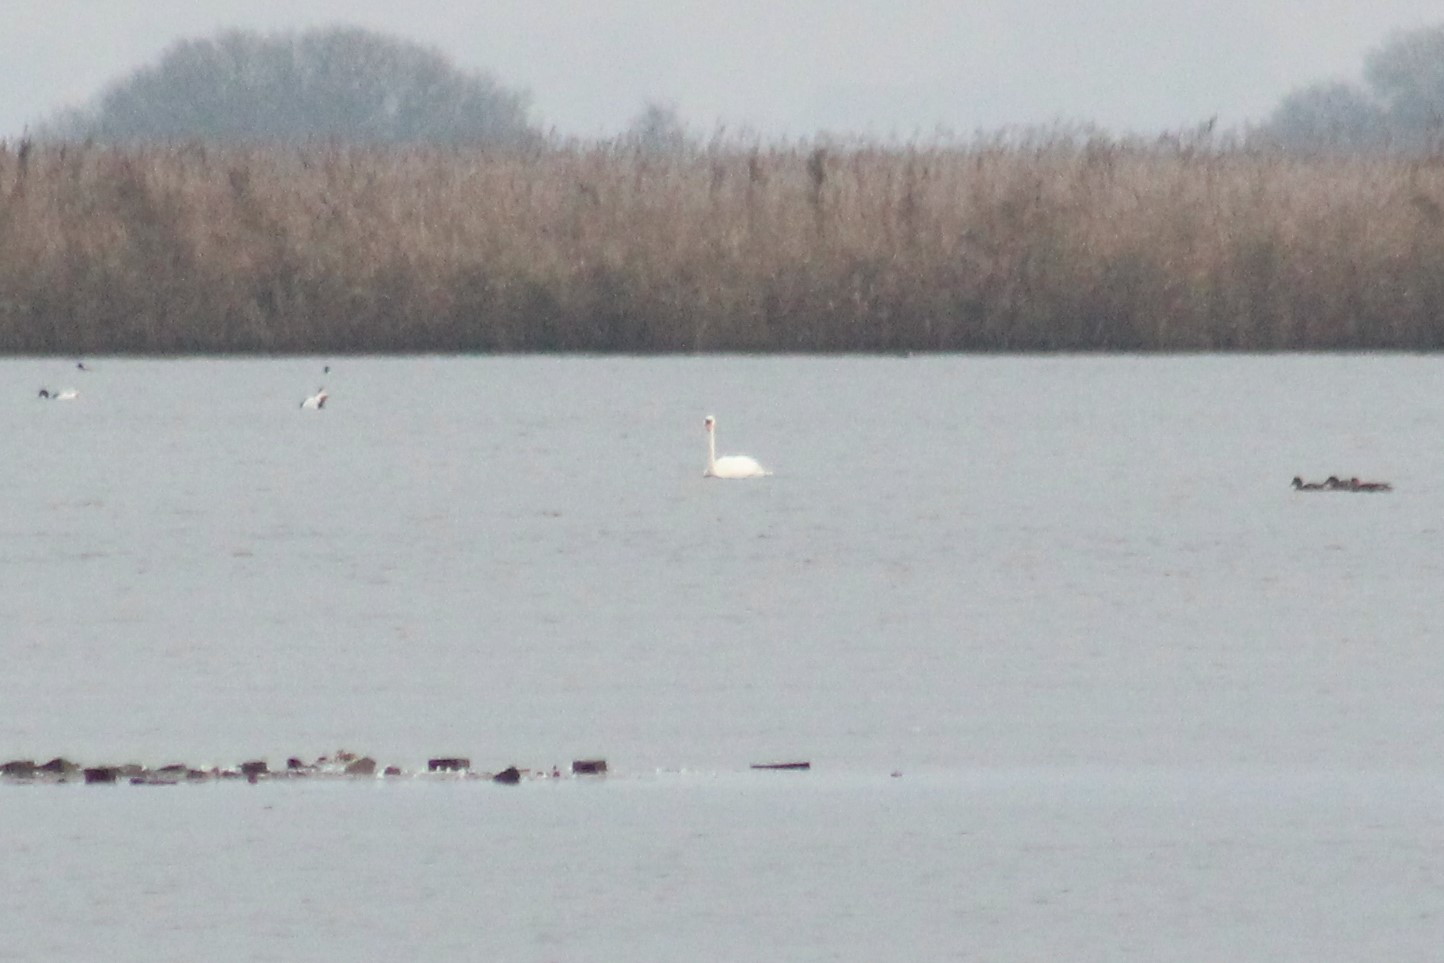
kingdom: Animalia
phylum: Chordata
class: Aves
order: Anseriformes
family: Anatidae
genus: Cygnus
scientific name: Cygnus olor
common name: Mute swan
